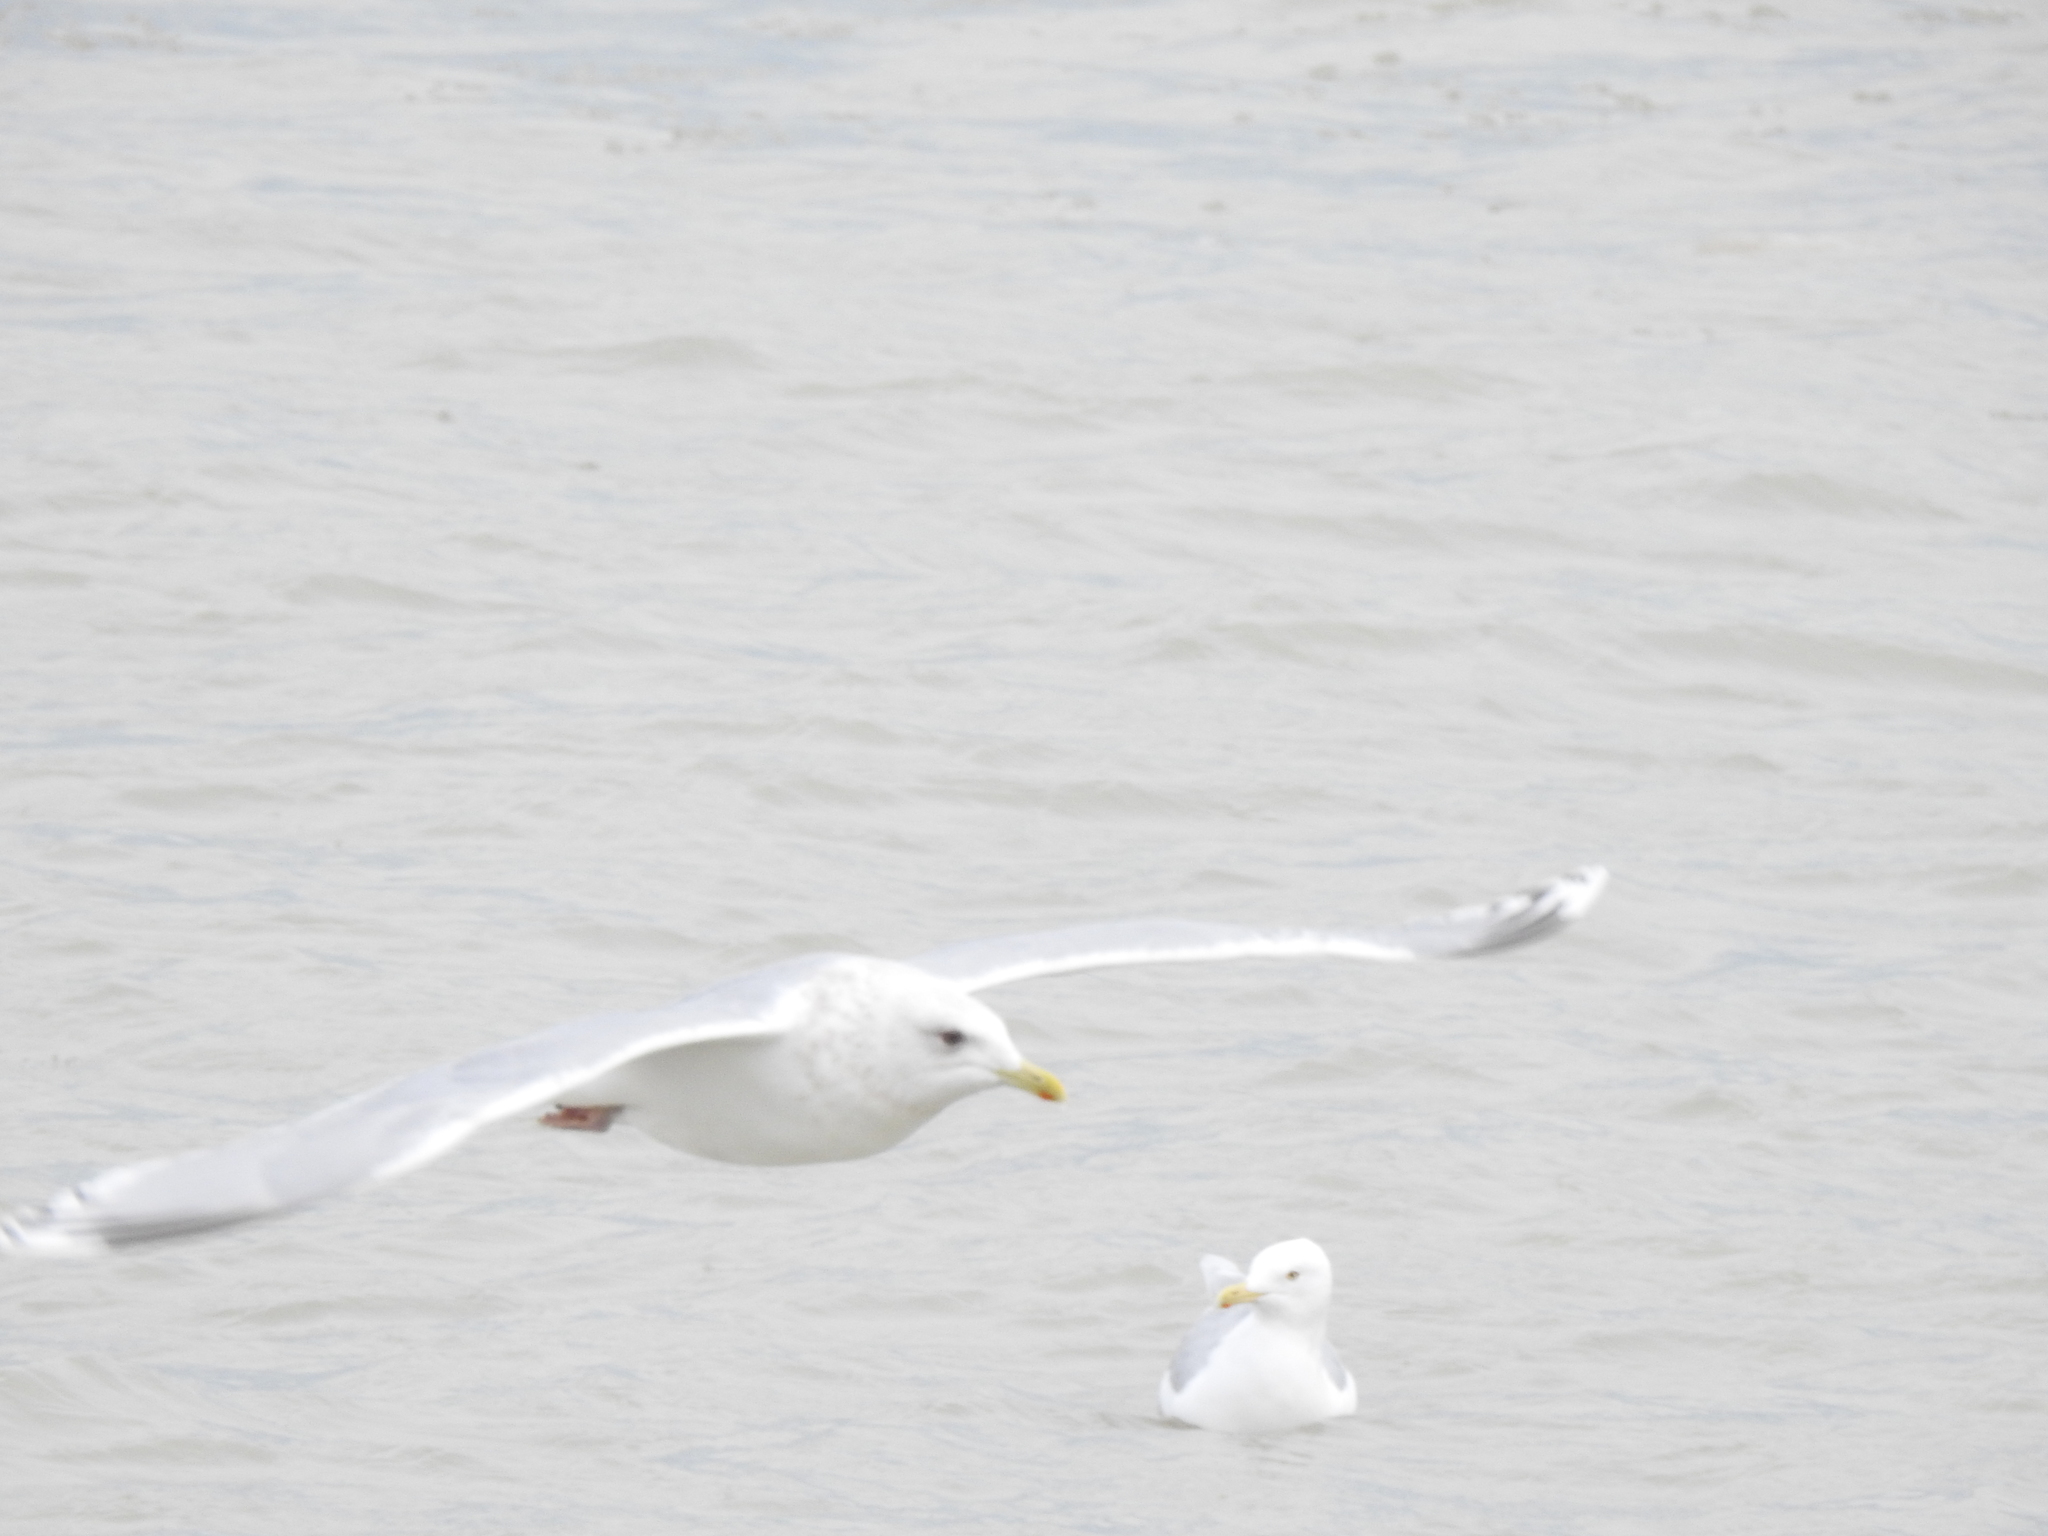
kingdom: Animalia
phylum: Chordata
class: Aves
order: Charadriiformes
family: Laridae
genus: Larus
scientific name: Larus glaucoides
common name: Iceland gull
